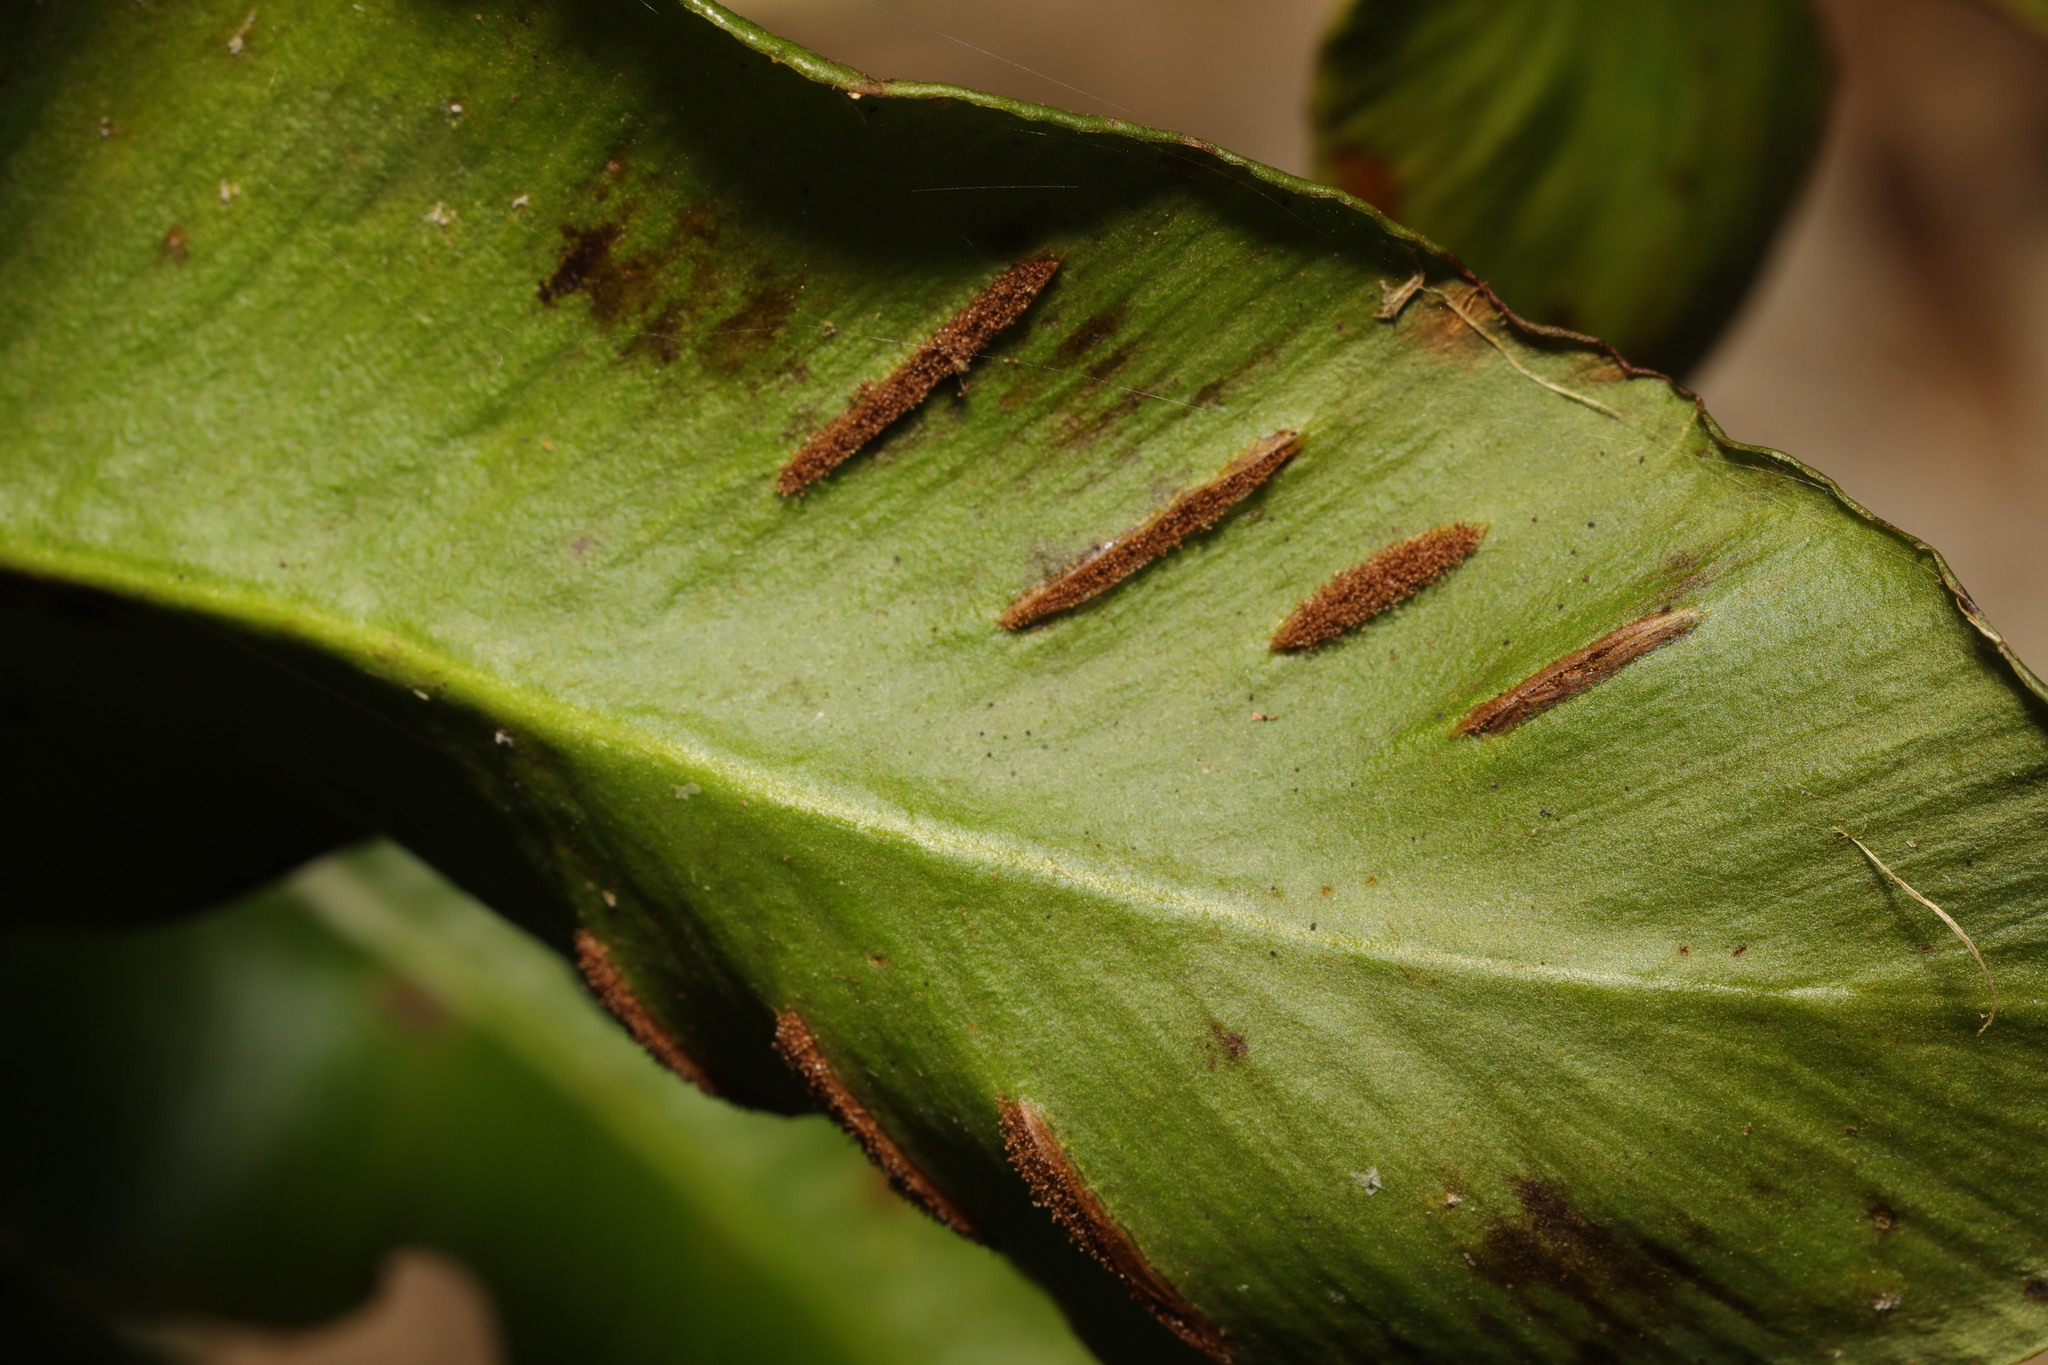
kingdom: Plantae
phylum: Tracheophyta
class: Polypodiopsida
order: Polypodiales
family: Aspleniaceae
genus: Asplenium
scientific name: Asplenium scolopendrium
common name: Hart's-tongue fern
